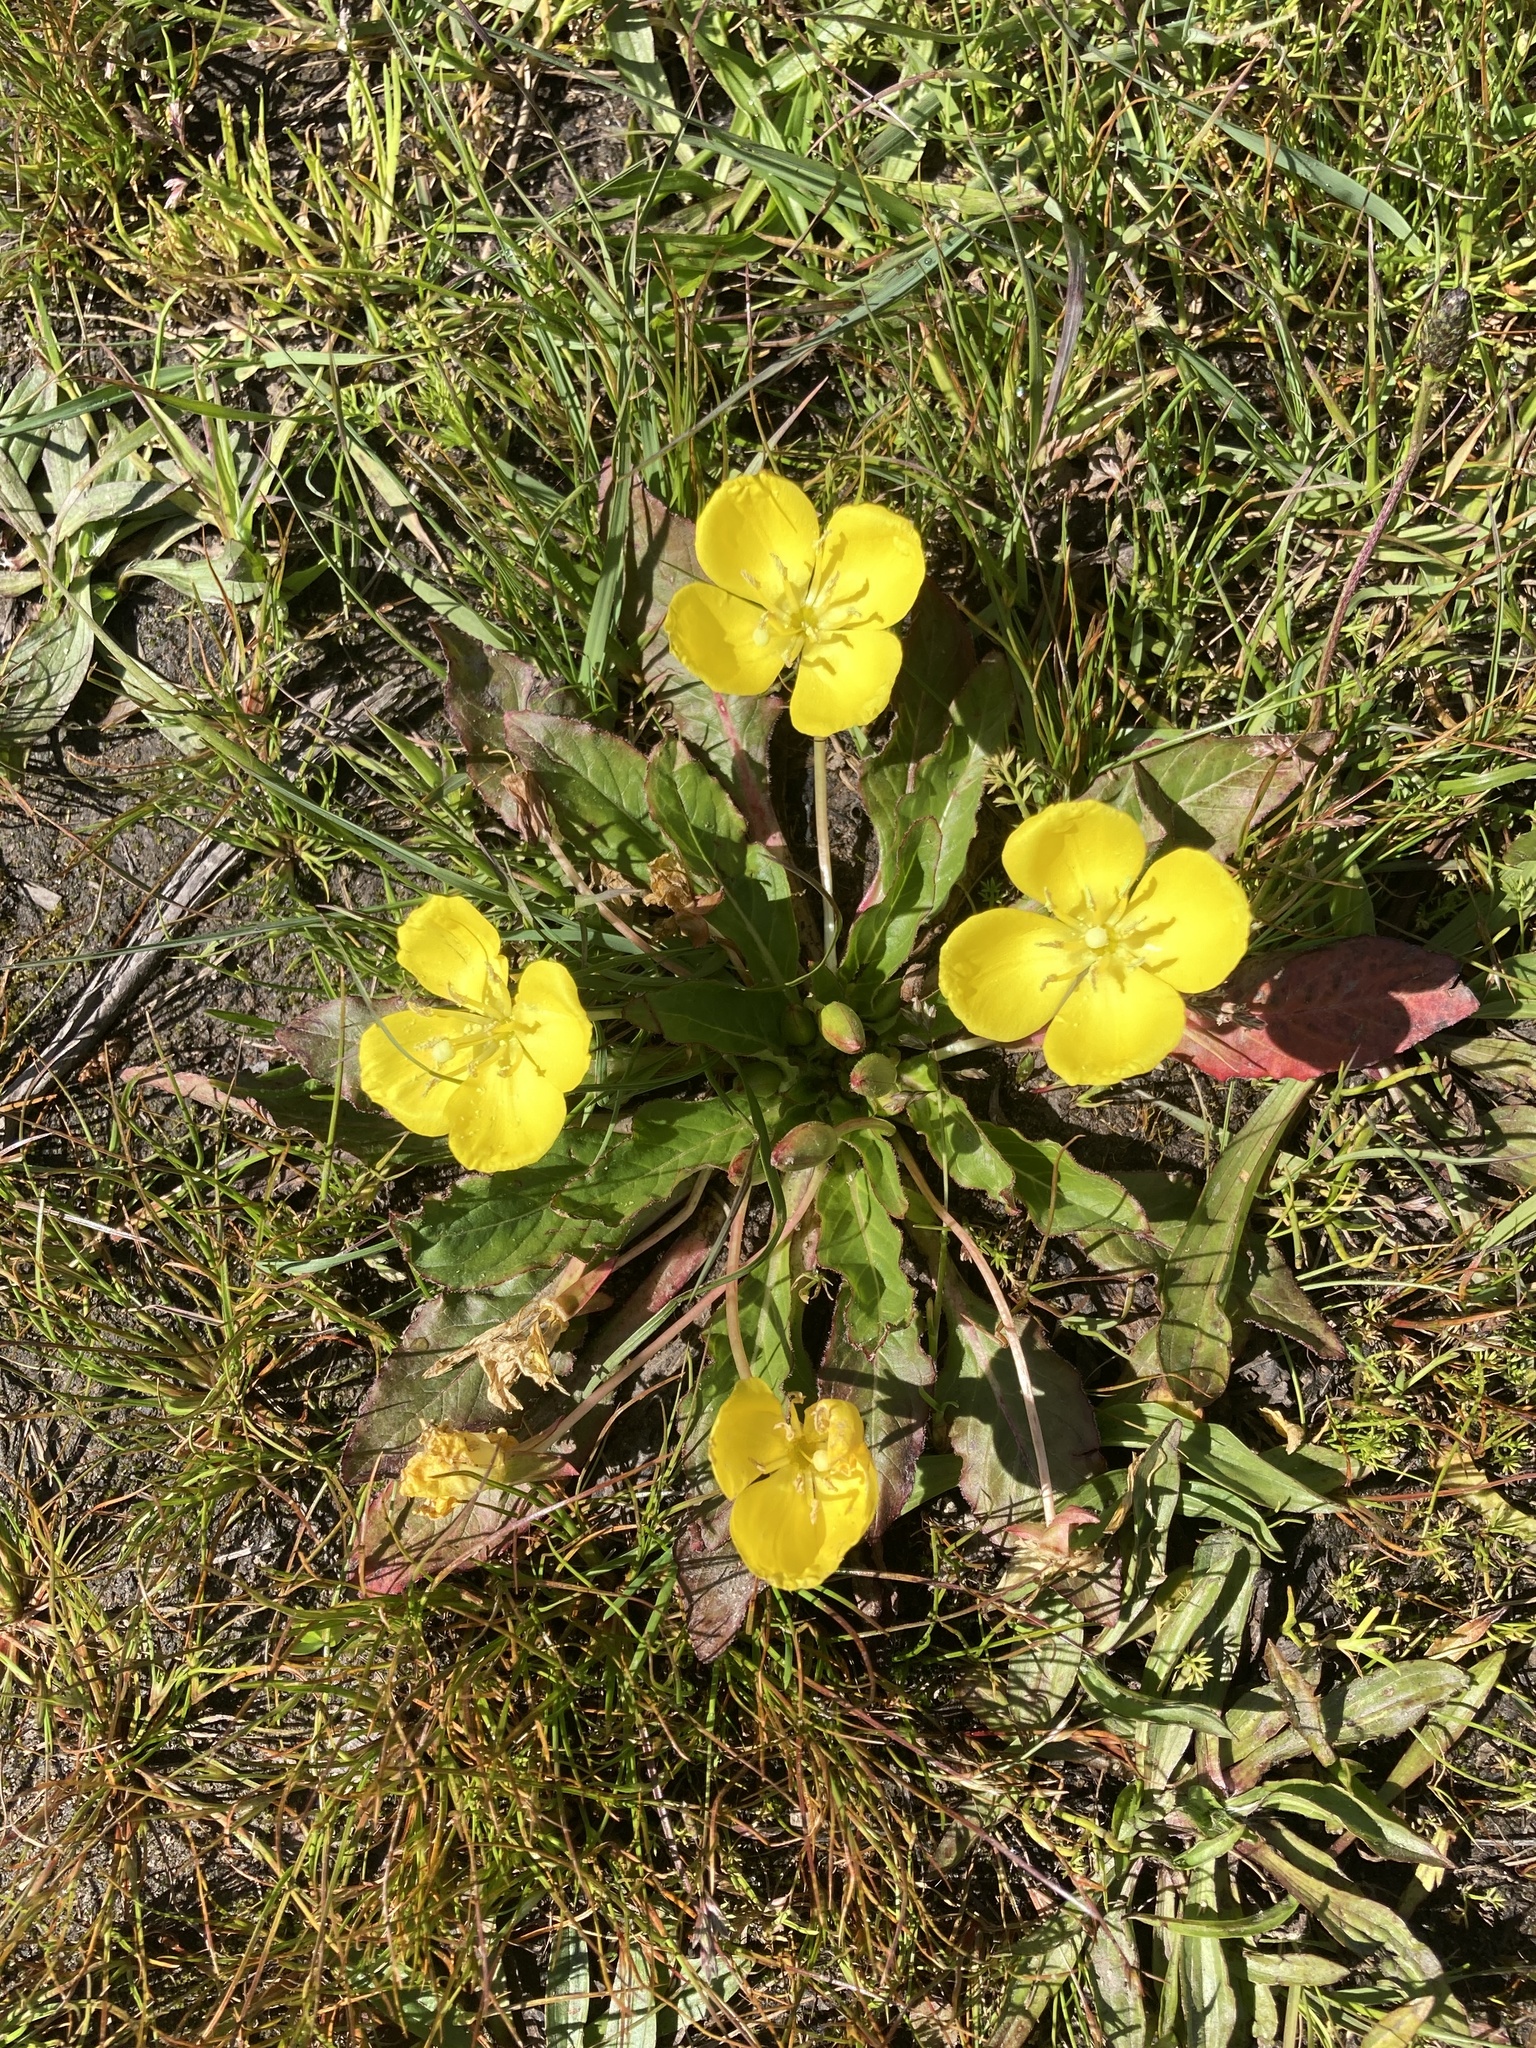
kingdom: Plantae
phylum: Tracheophyta
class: Magnoliopsida
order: Myrtales
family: Onagraceae
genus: Taraxia
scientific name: Taraxia ovata
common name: Goldeneggs
